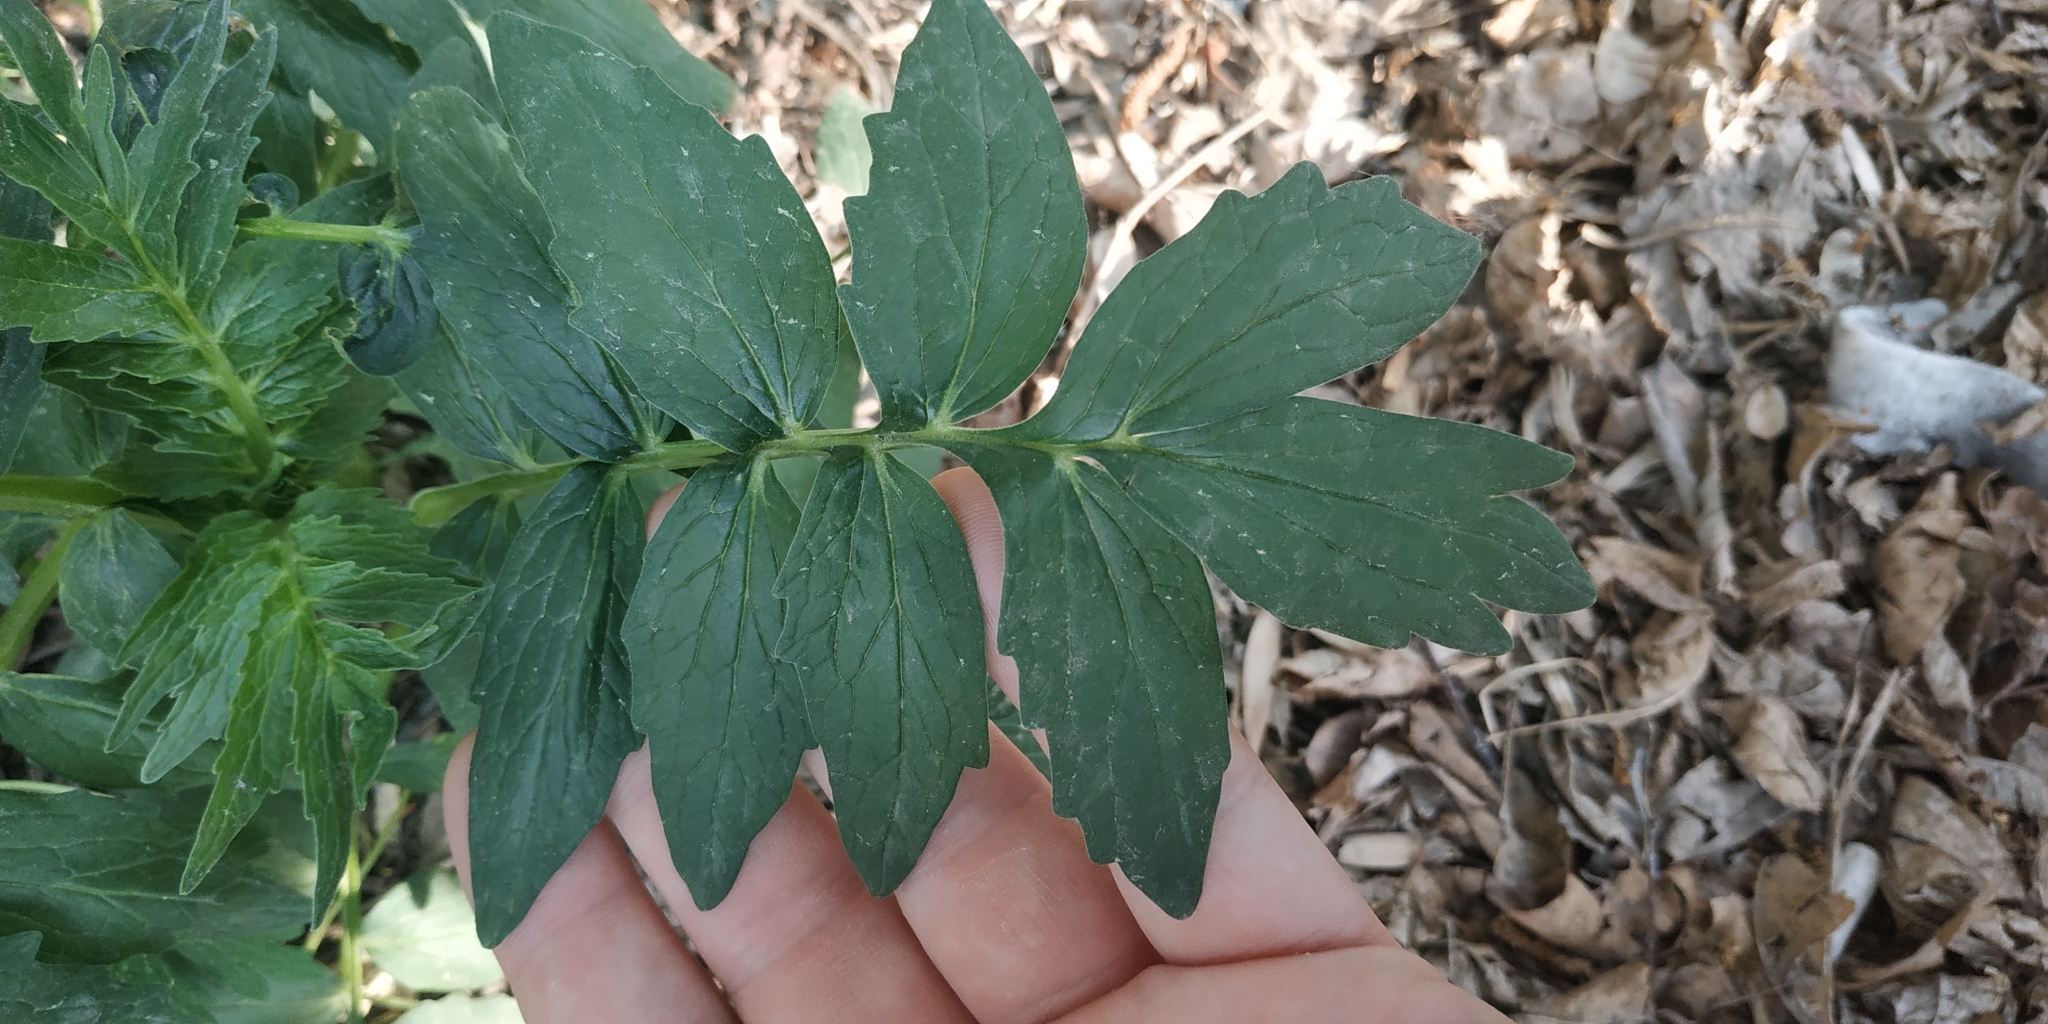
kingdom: Plantae
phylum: Tracheophyta
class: Magnoliopsida
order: Dipsacales
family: Caprifoliaceae
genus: Valeriana
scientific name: Valeriana wolgensis
